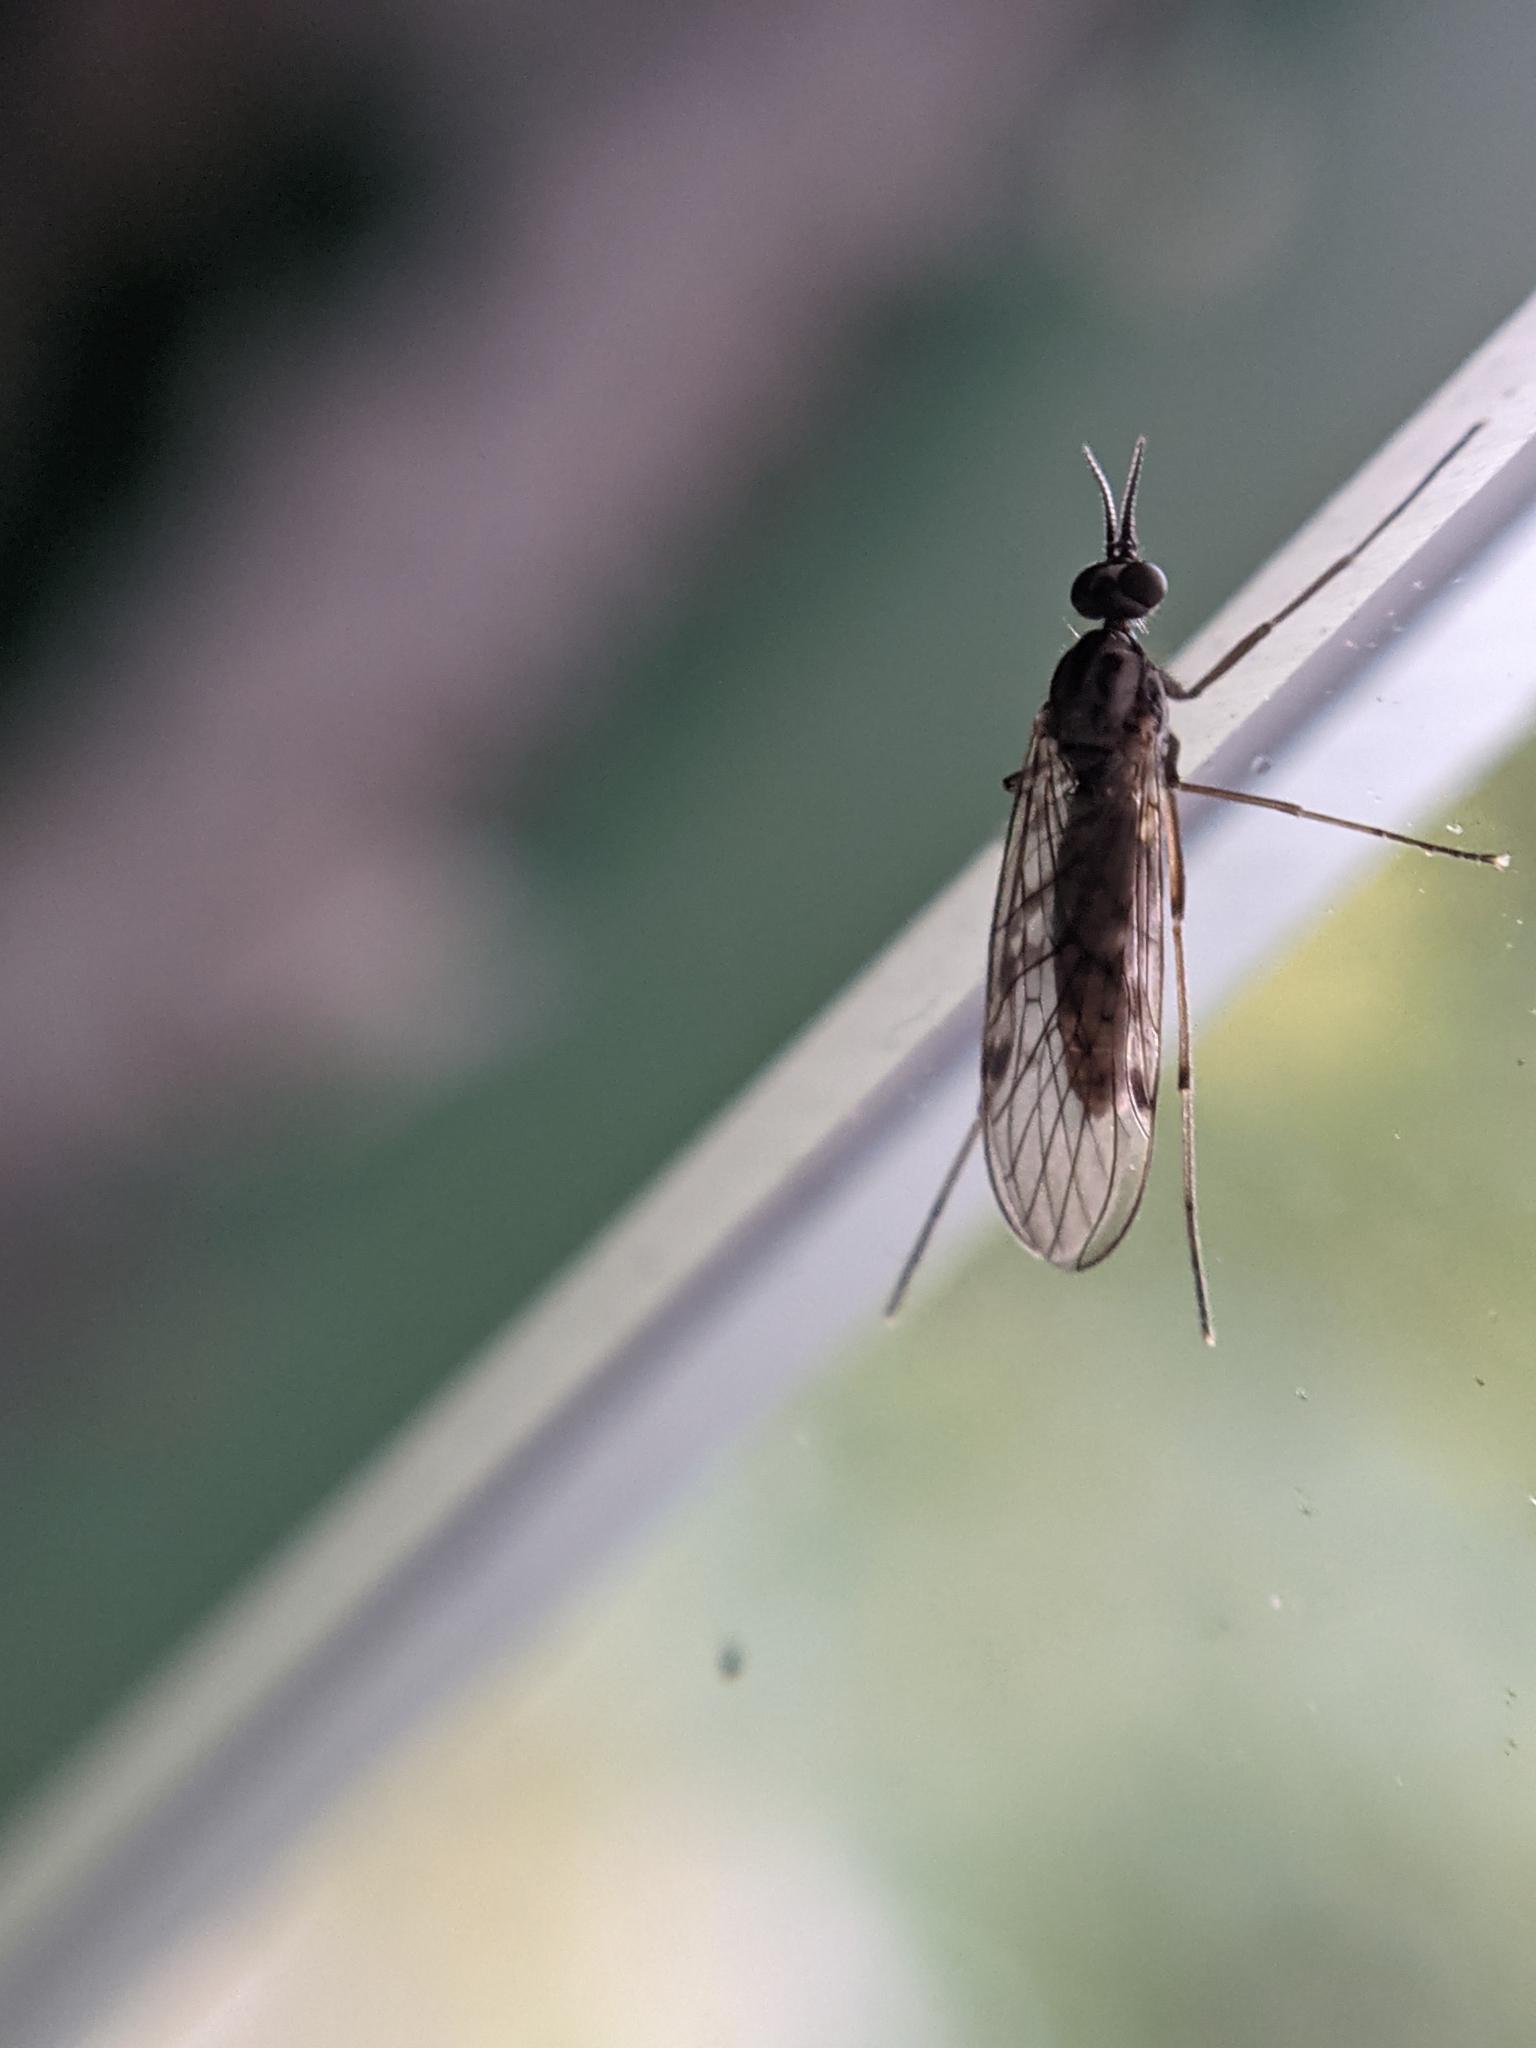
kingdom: Animalia
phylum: Arthropoda
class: Insecta
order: Diptera
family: Anisopodidae
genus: Sylvicola
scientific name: Sylvicola punctatus
